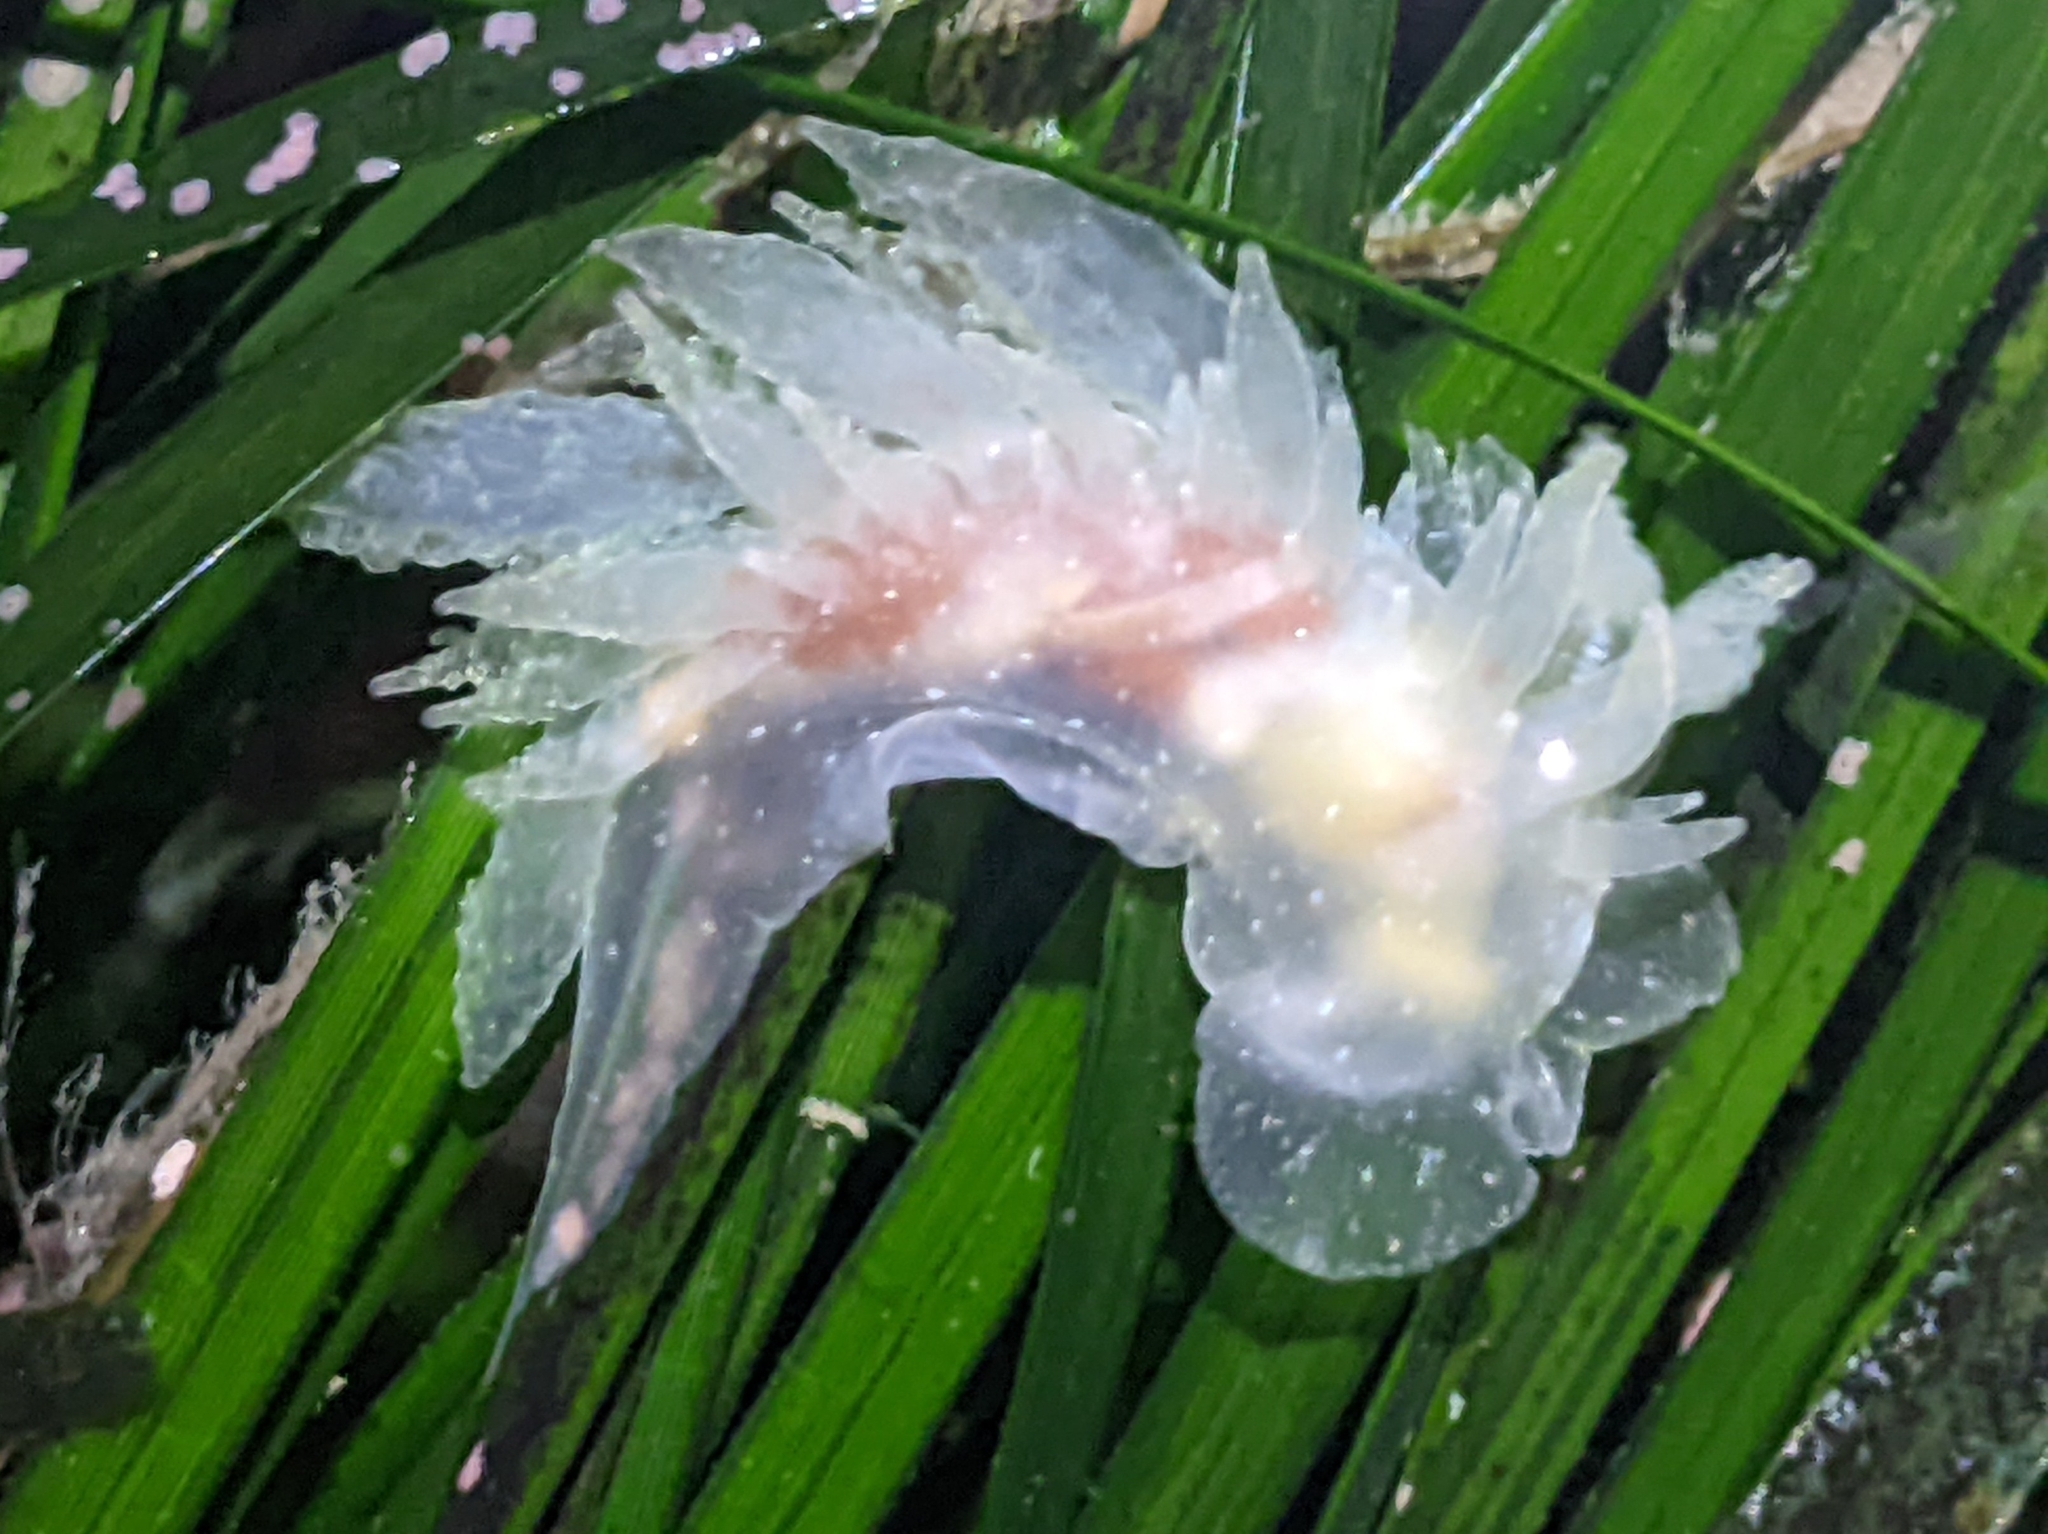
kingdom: Animalia
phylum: Mollusca
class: Gastropoda
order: Nudibranchia
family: Dironidae
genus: Dirona
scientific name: Dirona picta
